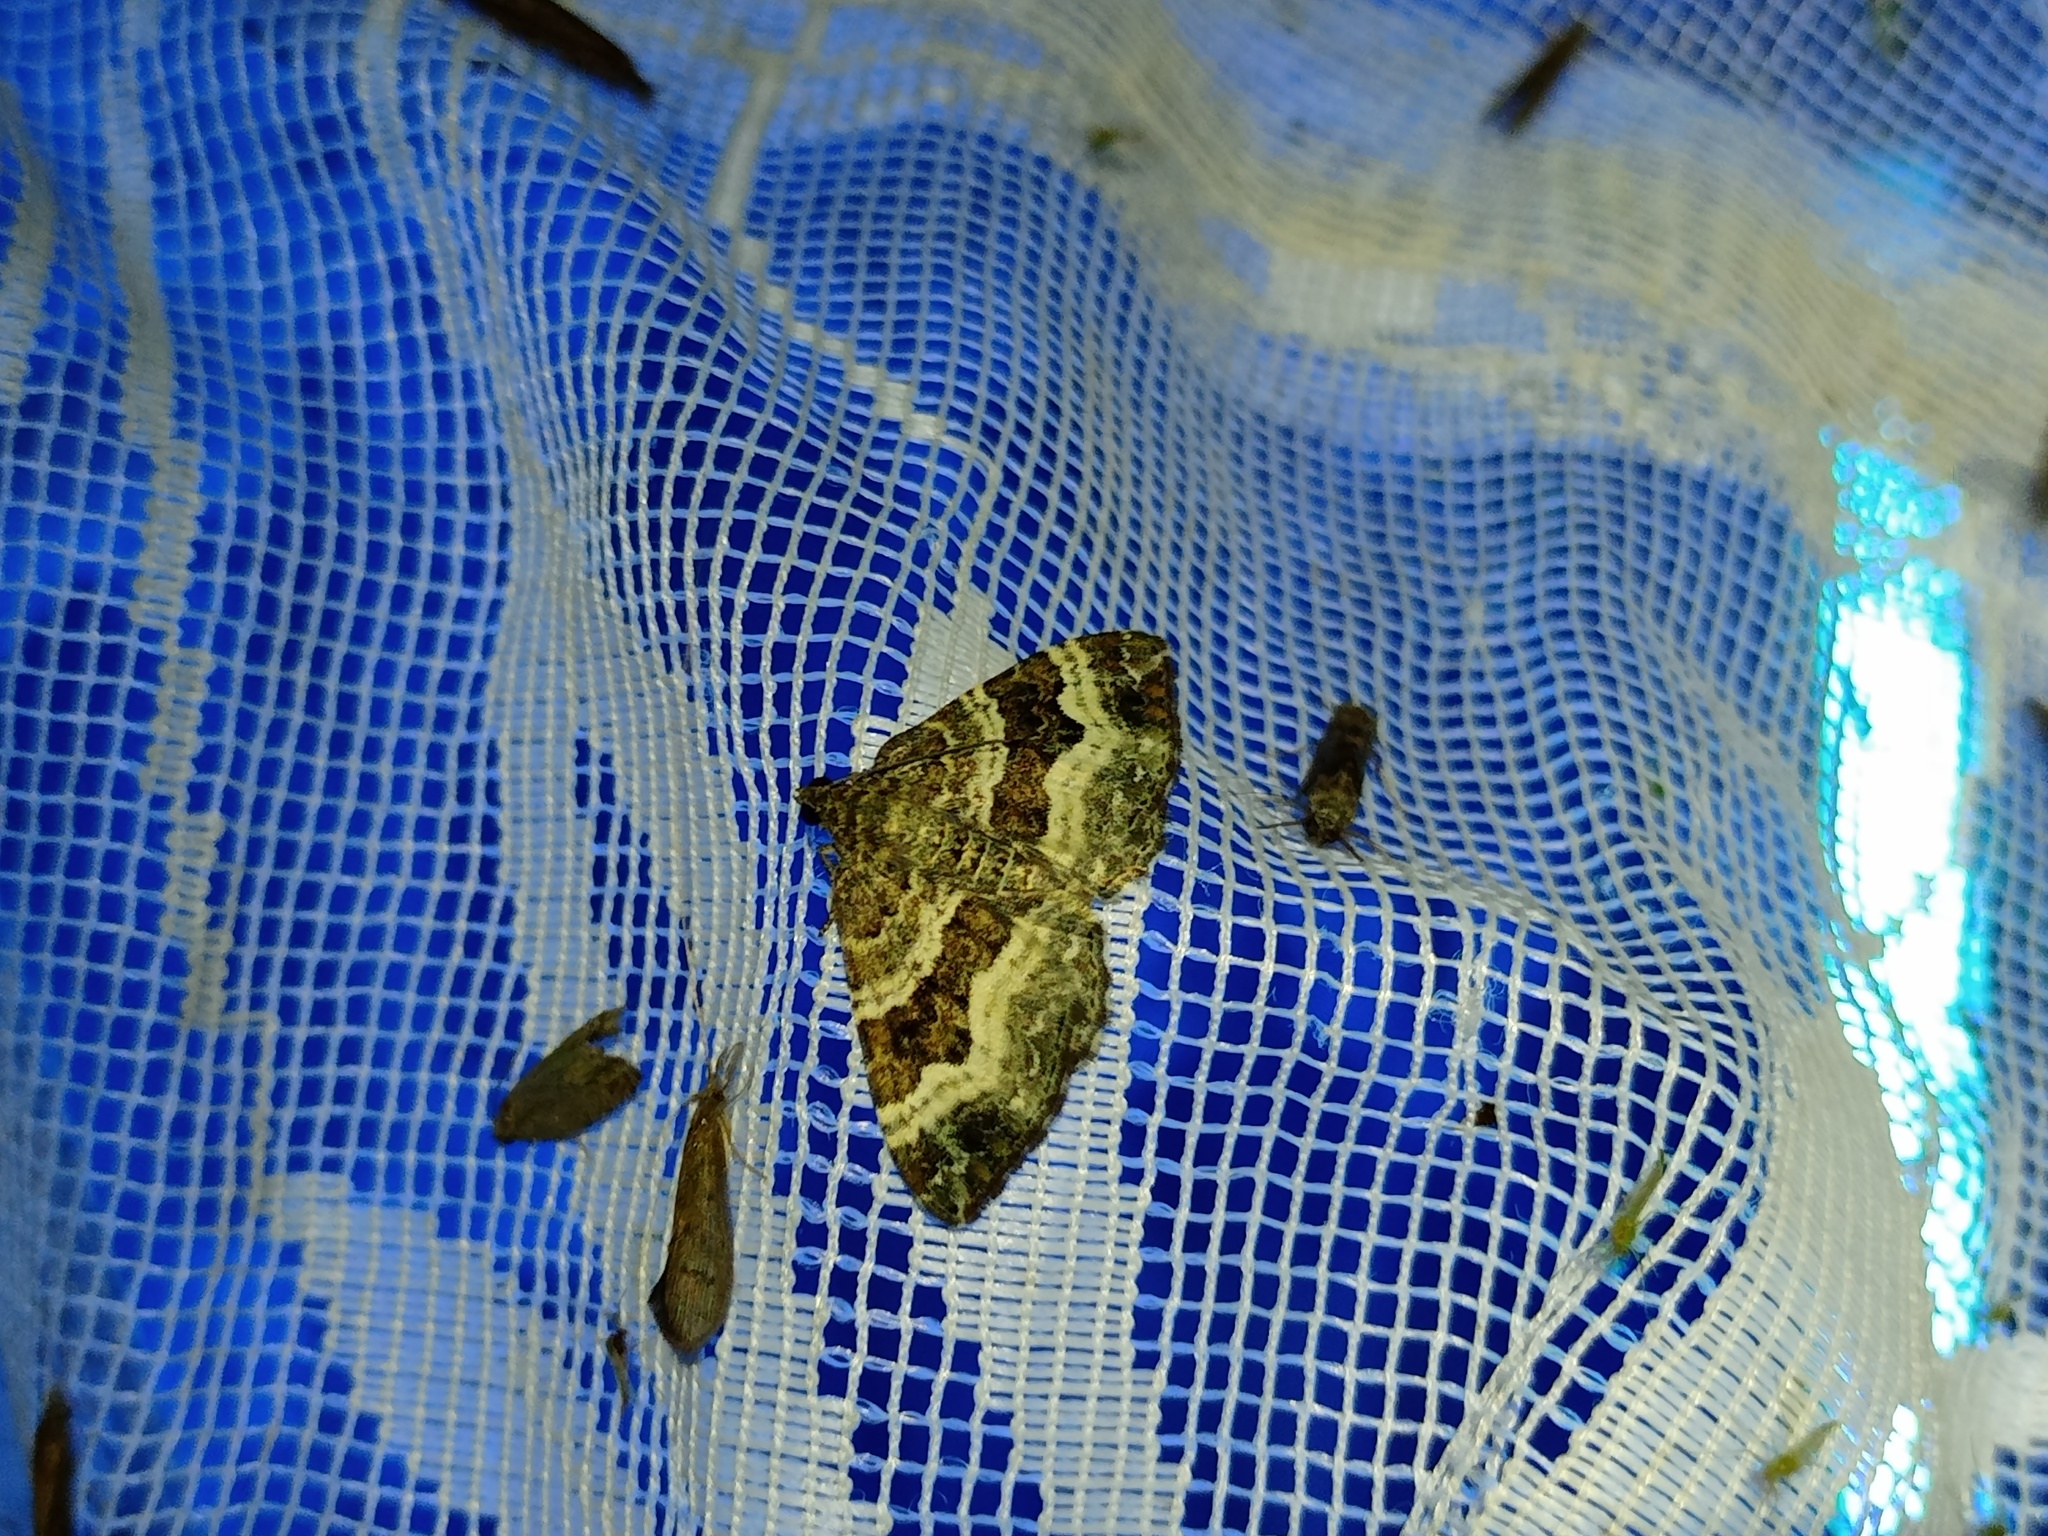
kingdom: Animalia
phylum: Arthropoda
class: Insecta
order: Lepidoptera
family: Geometridae
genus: Epirrhoe
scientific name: Epirrhoe alternata
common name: Common carpet
